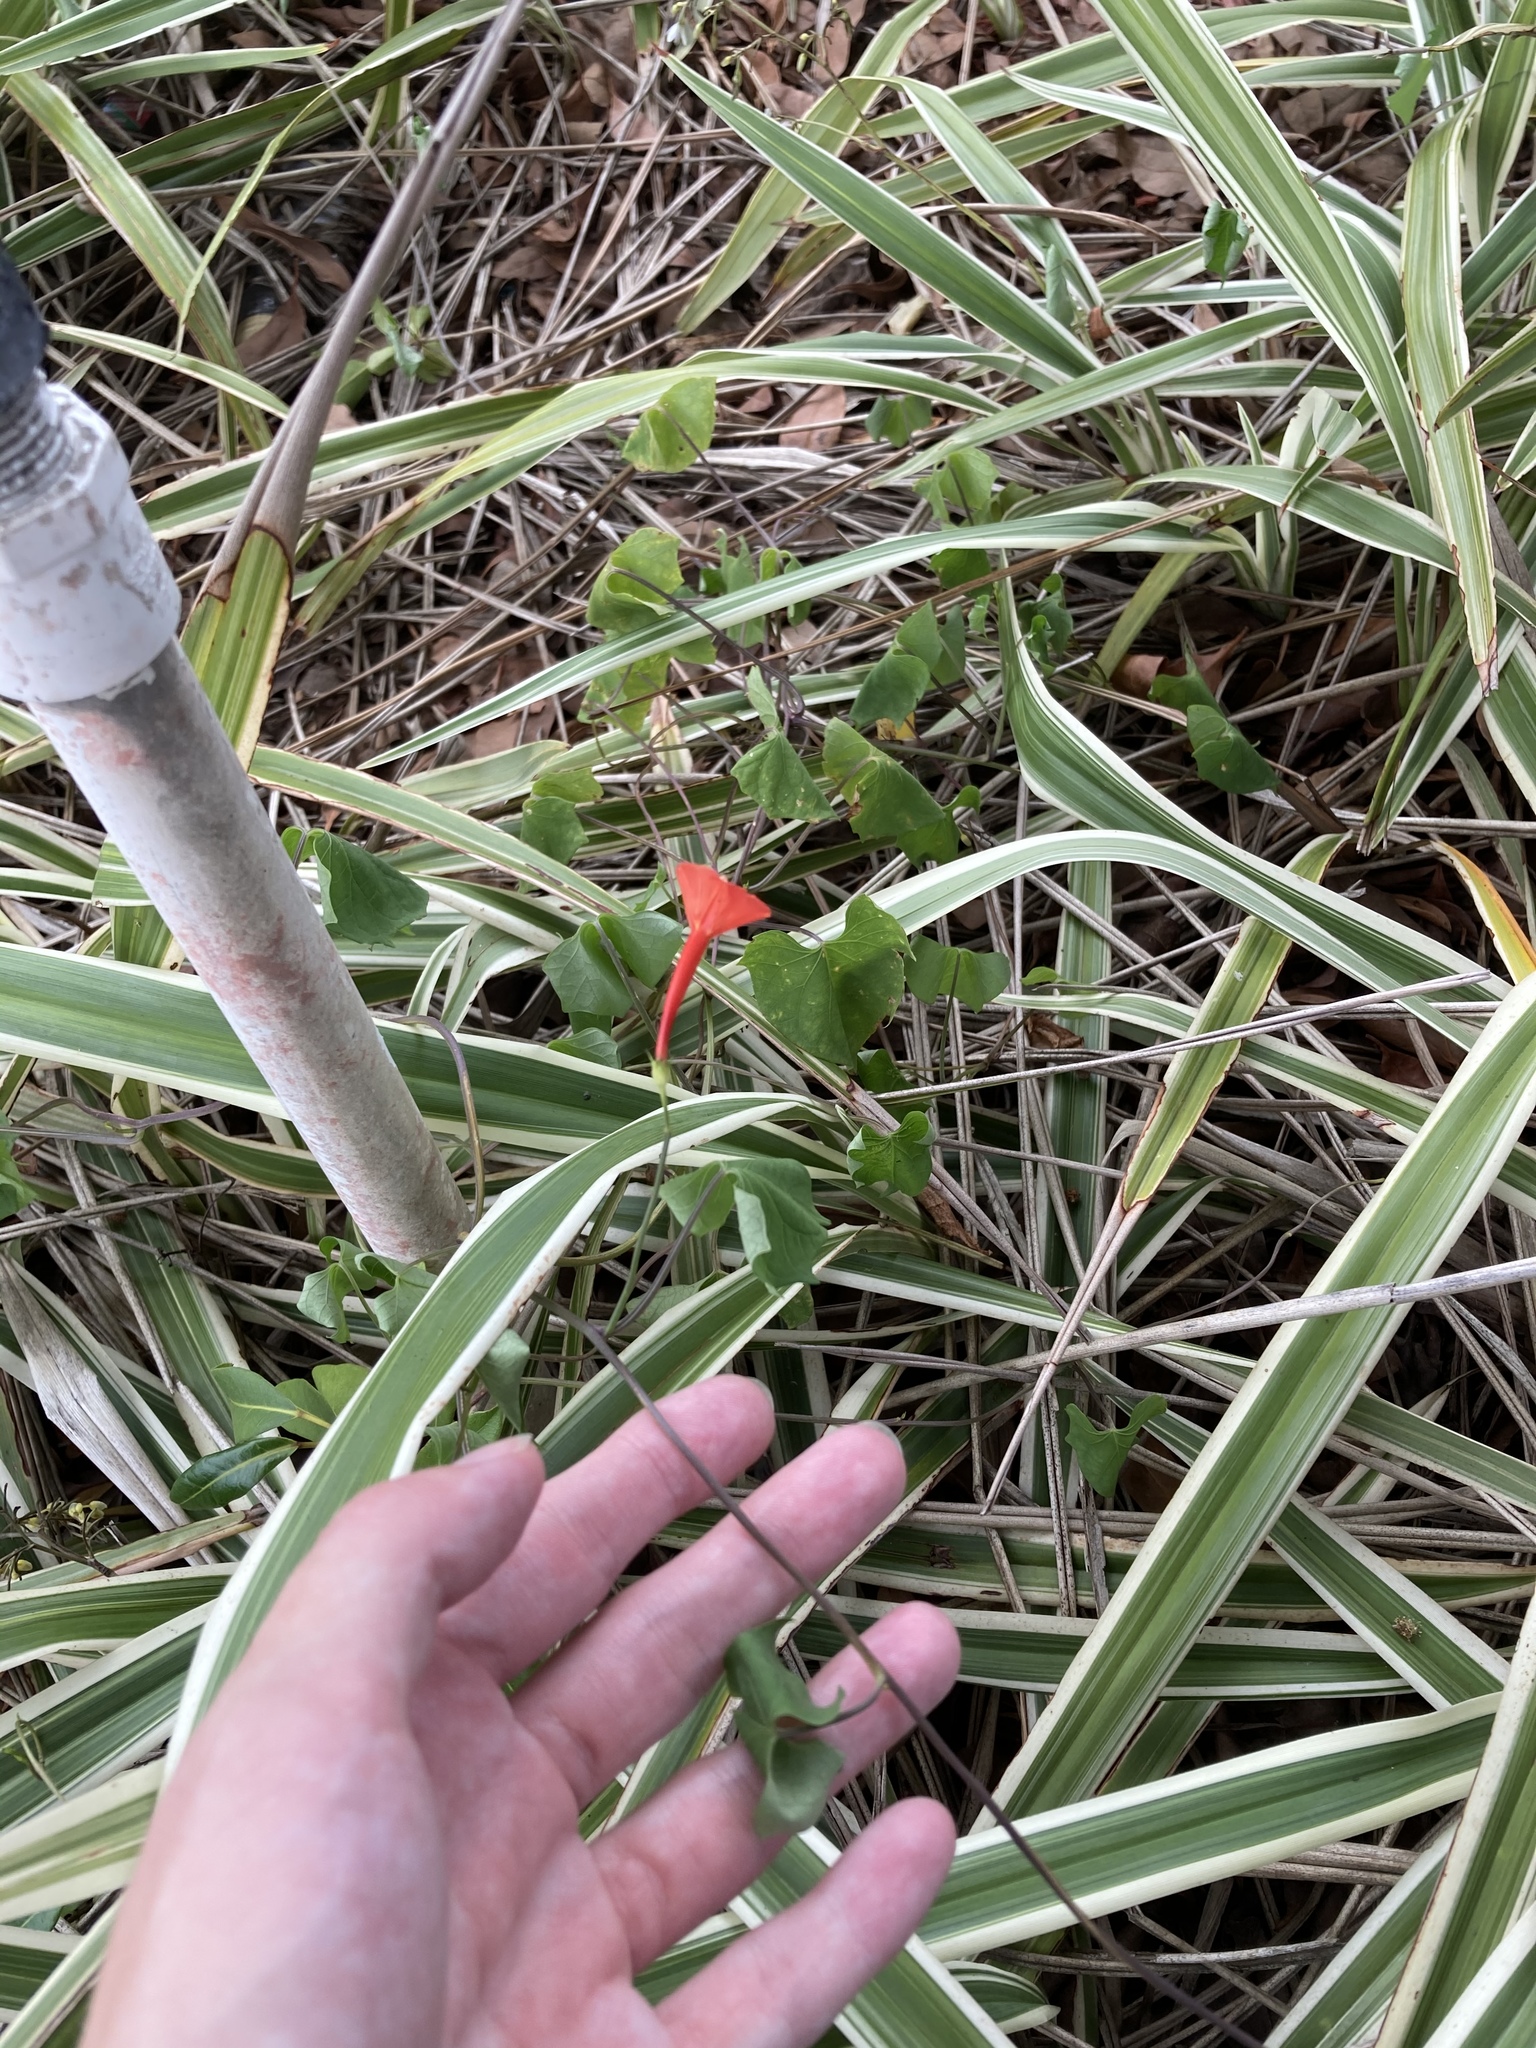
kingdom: Plantae
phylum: Tracheophyta
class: Magnoliopsida
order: Solanales
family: Convolvulaceae
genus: Ipomoea
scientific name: Ipomoea hederifolia
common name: Ivy-leaf morning-glory
